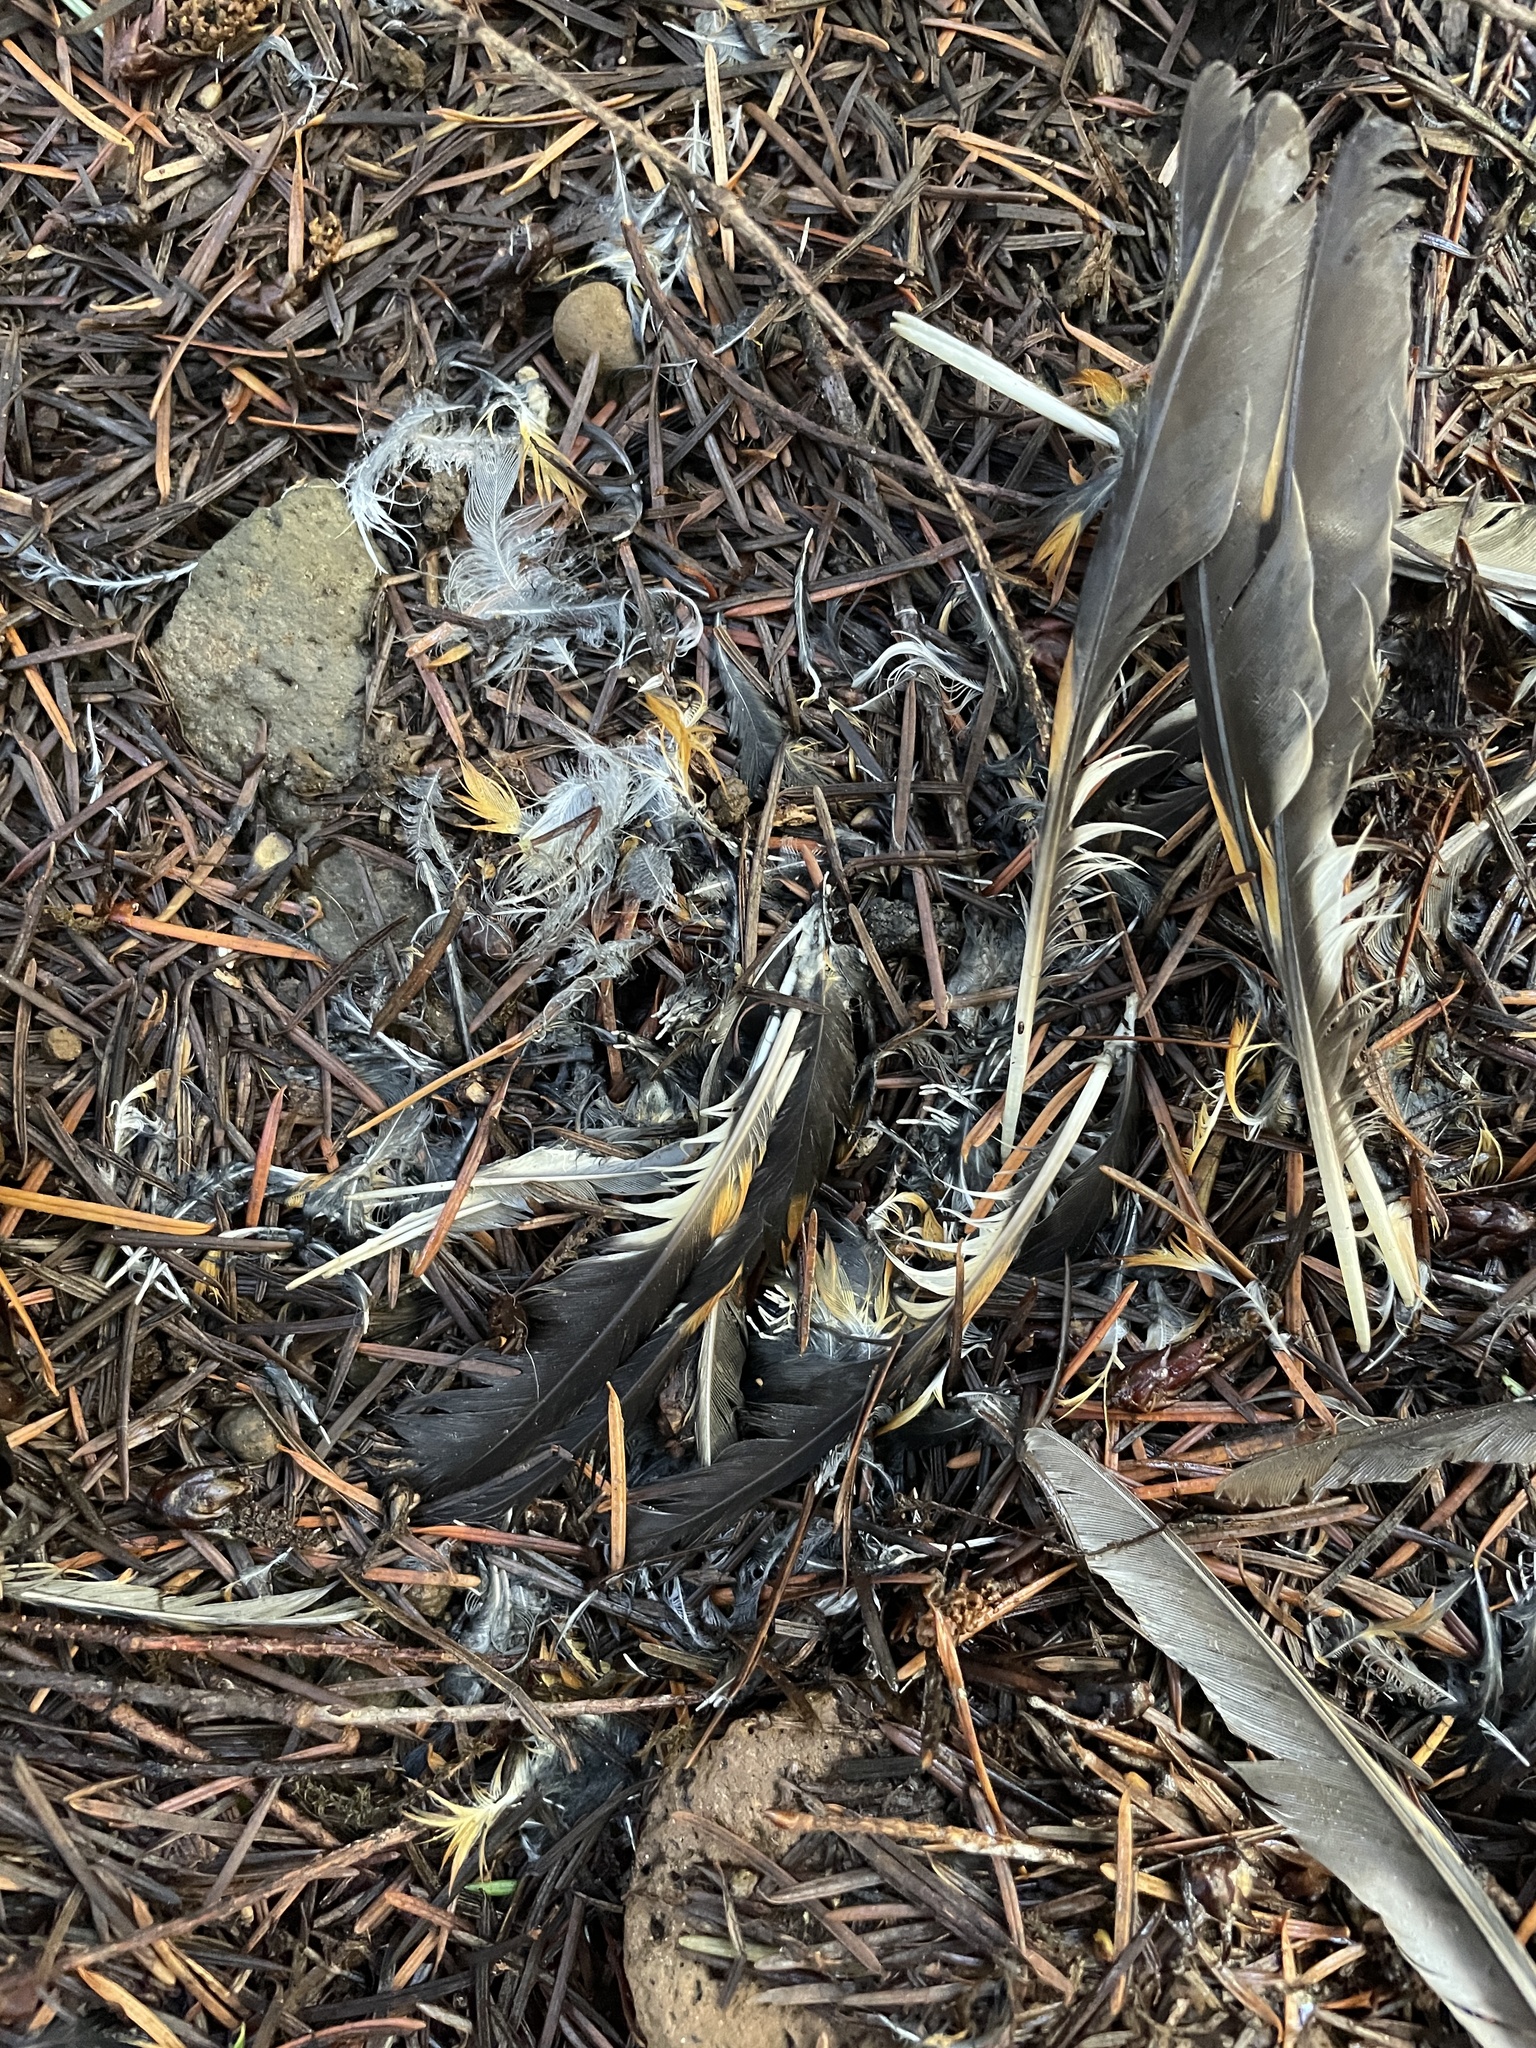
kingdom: Animalia
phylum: Chordata
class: Aves
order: Passeriformes
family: Turdidae
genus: Ixoreus
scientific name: Ixoreus naevius
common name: Varied thrush
